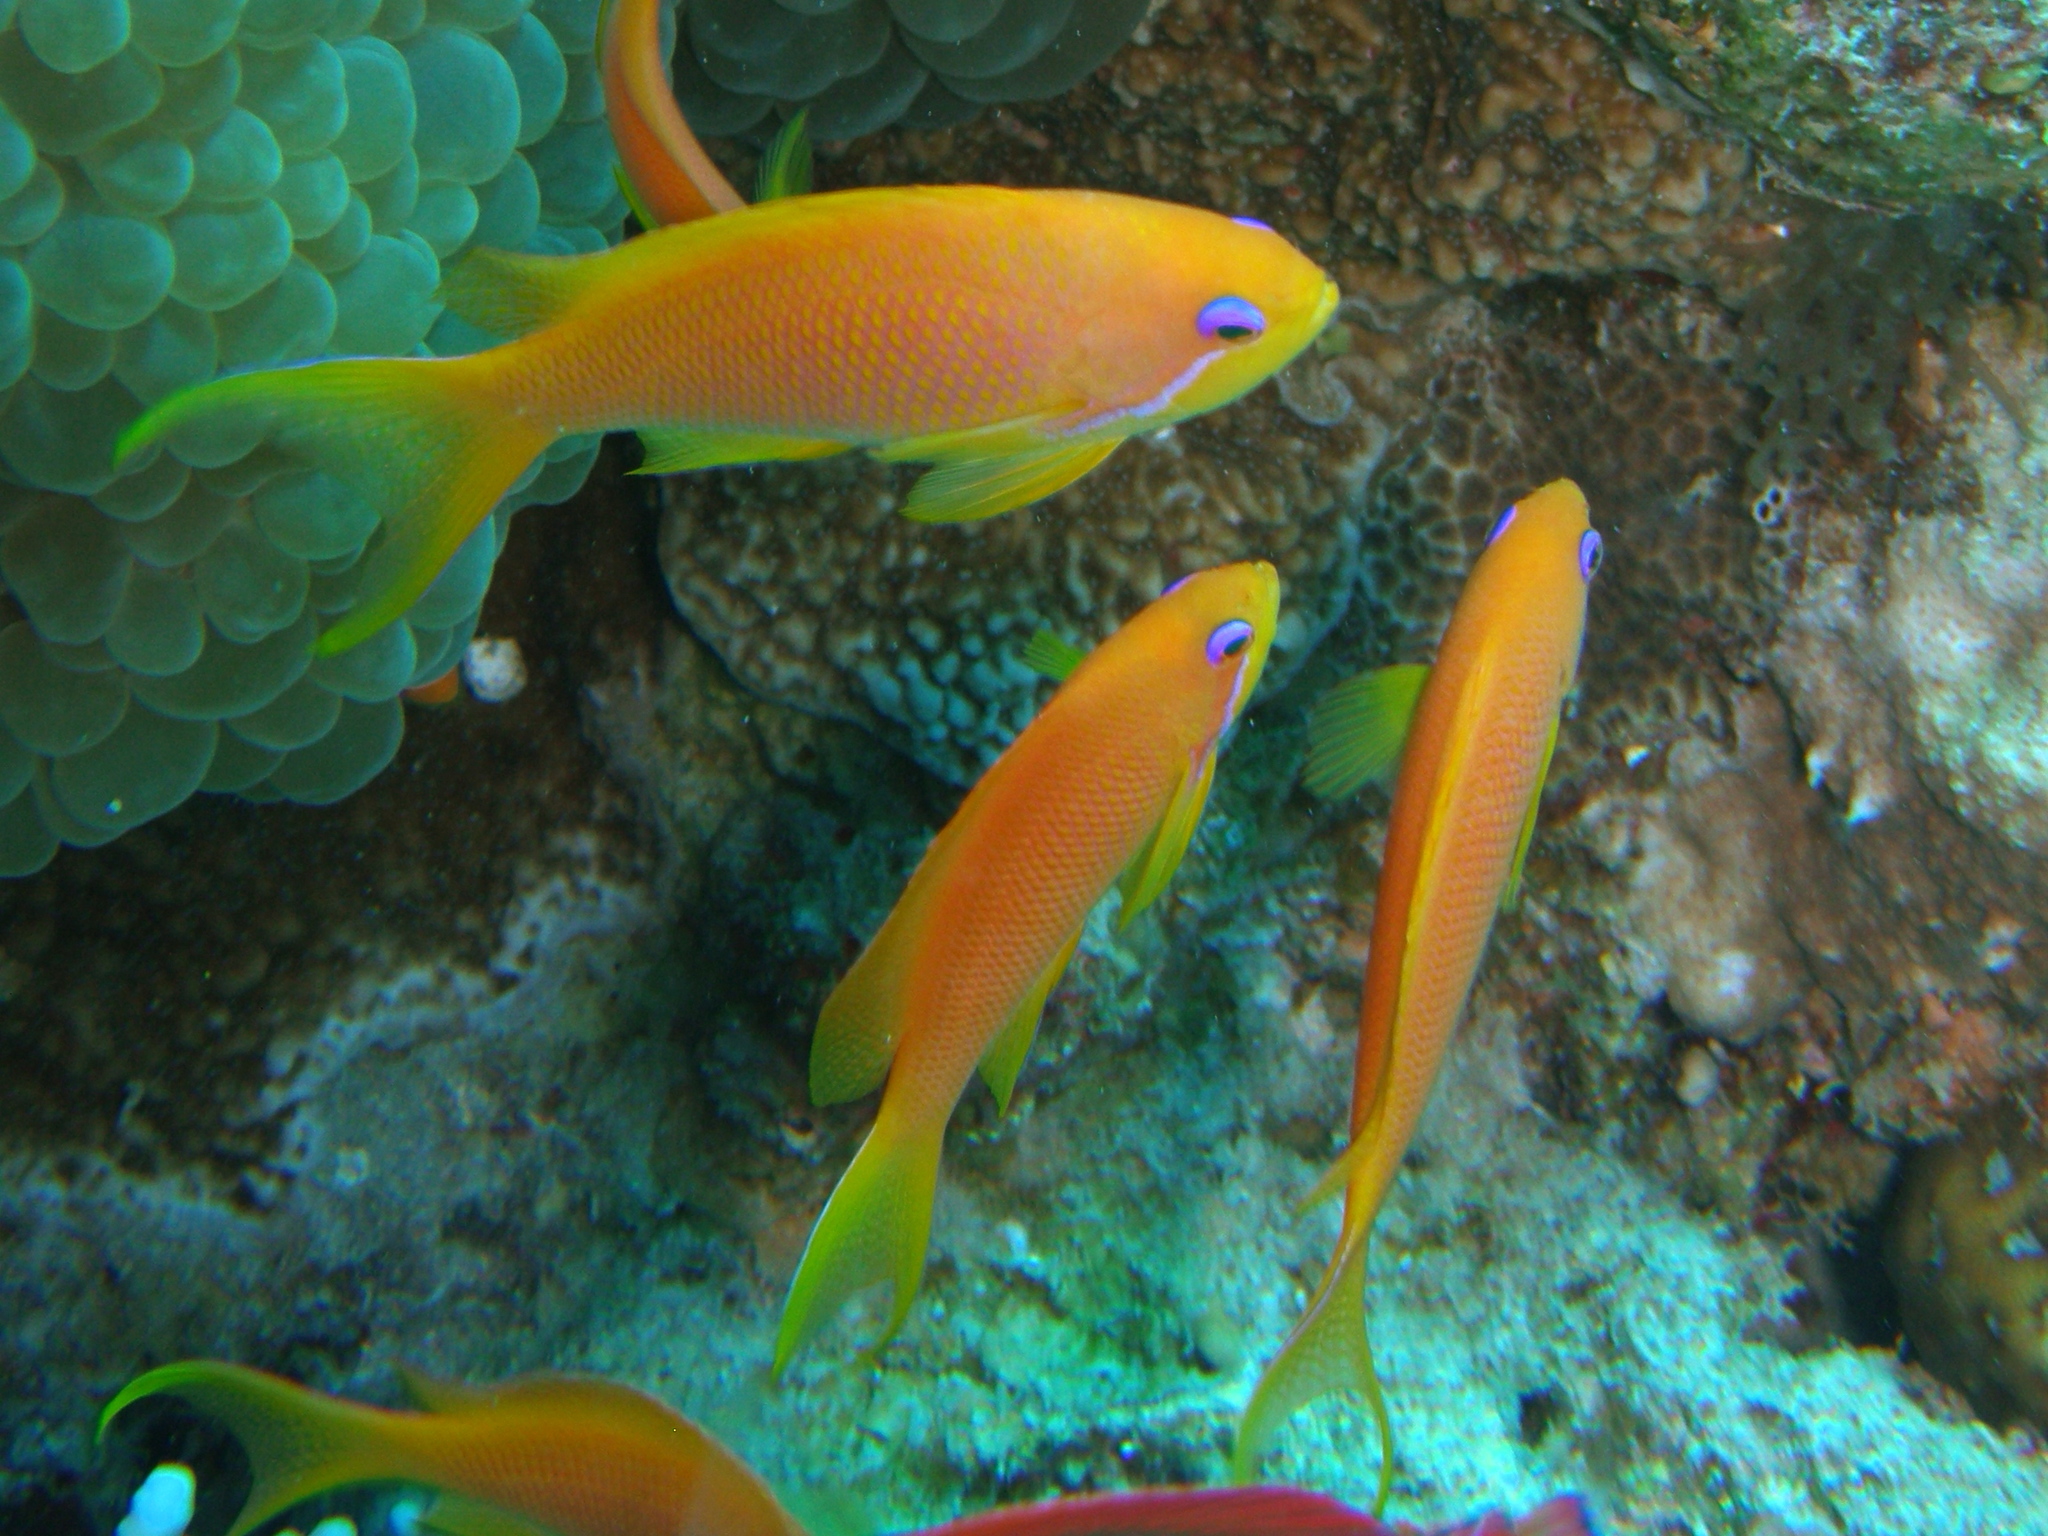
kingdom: Animalia
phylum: Chordata
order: Perciformes
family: Serranidae
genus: Pseudanthias
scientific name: Pseudanthias squamipinnis
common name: Scalefin anthias
